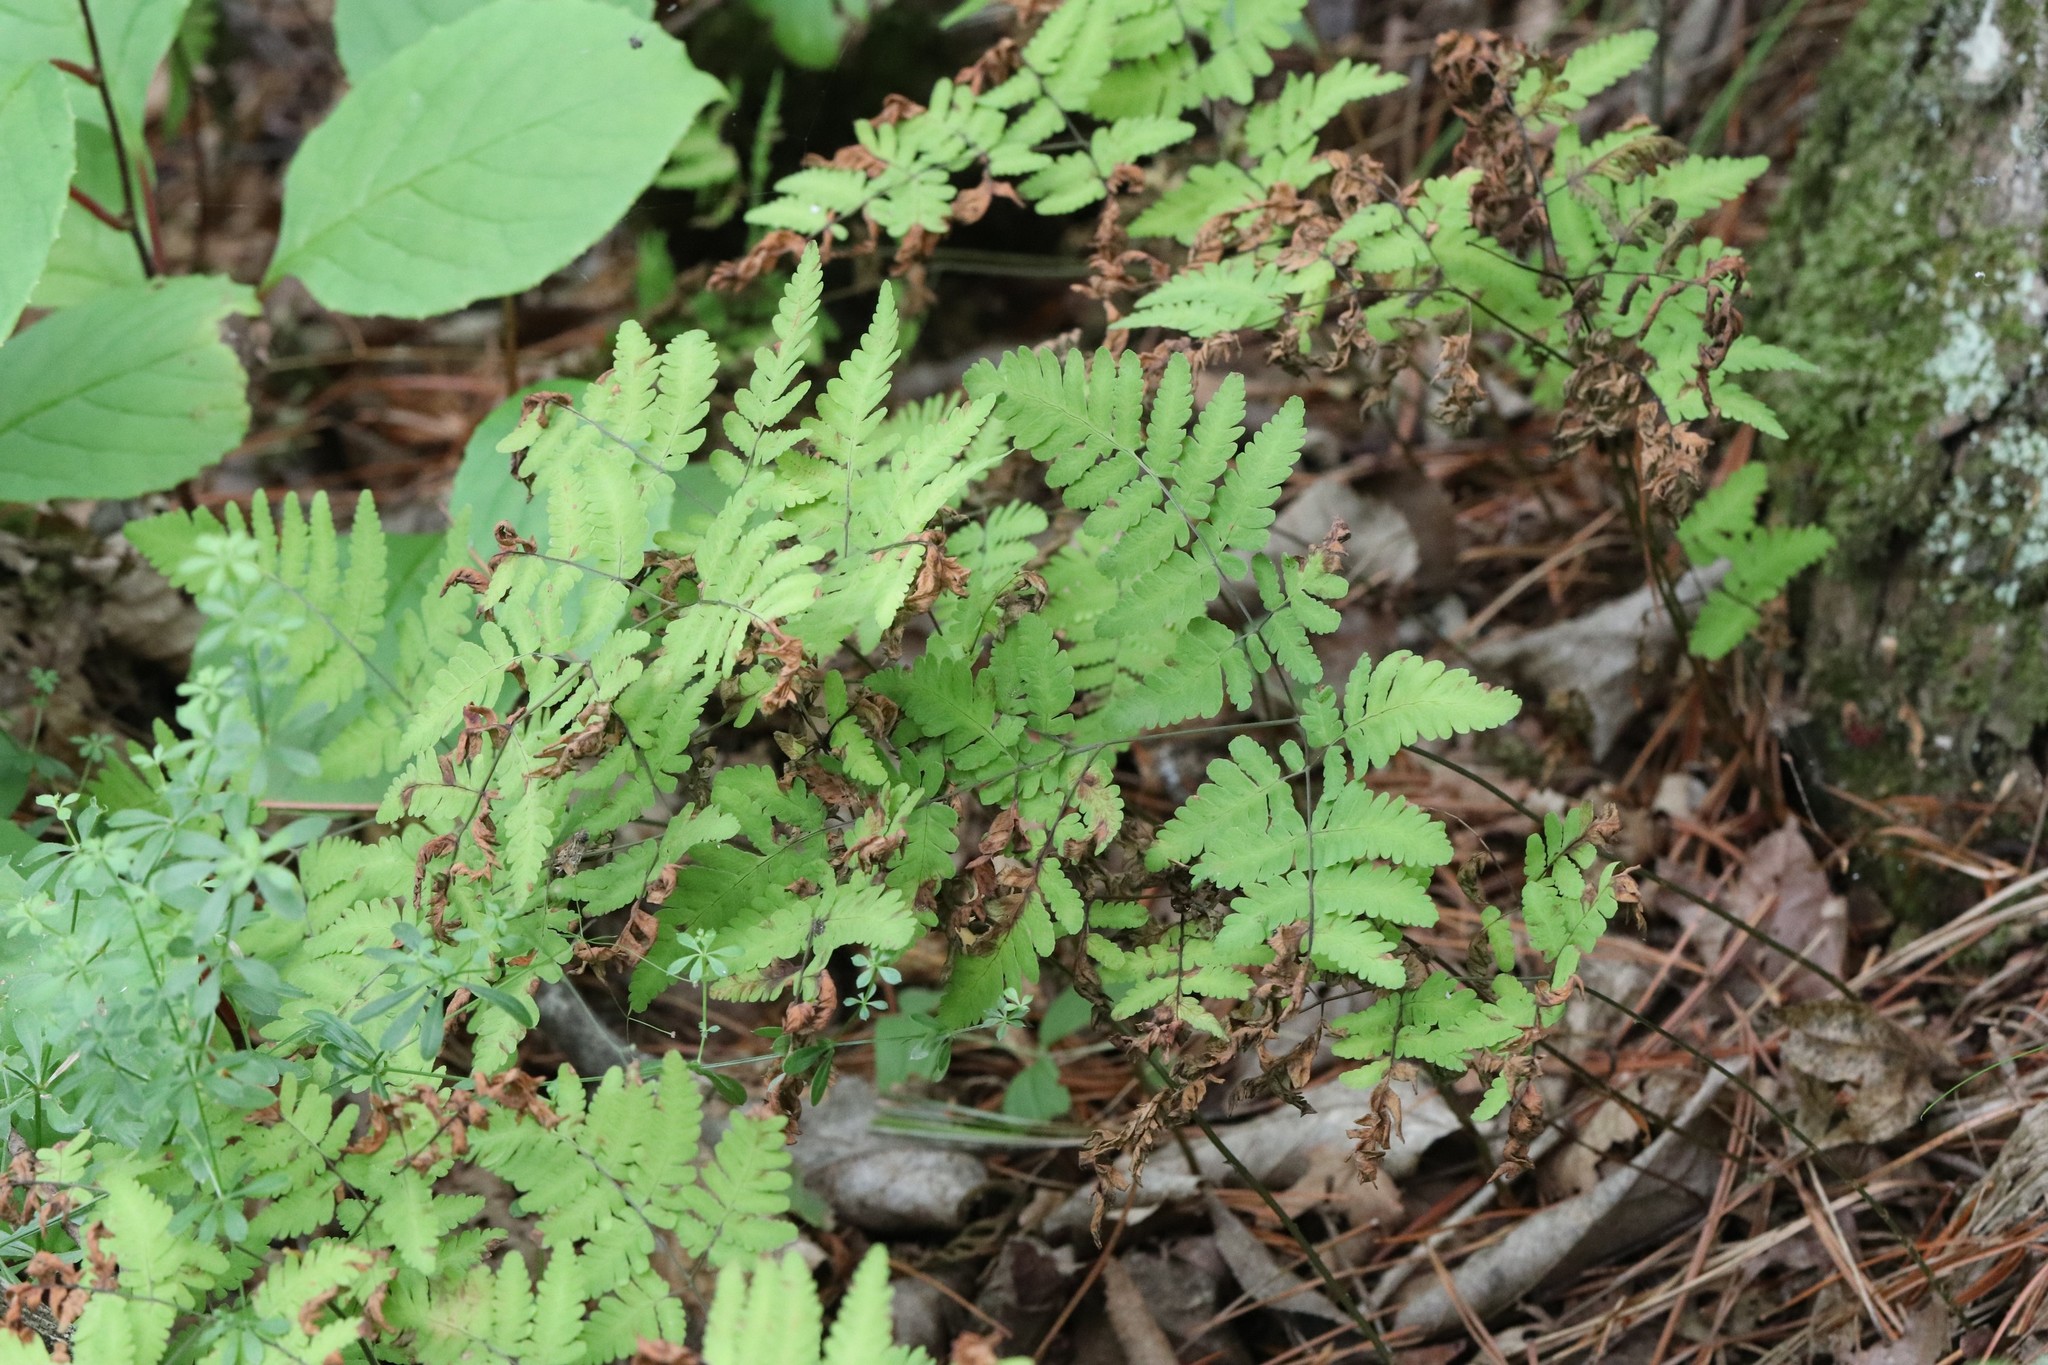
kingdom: Plantae
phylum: Tracheophyta
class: Polypodiopsida
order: Polypodiales
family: Cystopteridaceae
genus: Gymnocarpium
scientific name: Gymnocarpium dryopteris
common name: Oak fern
